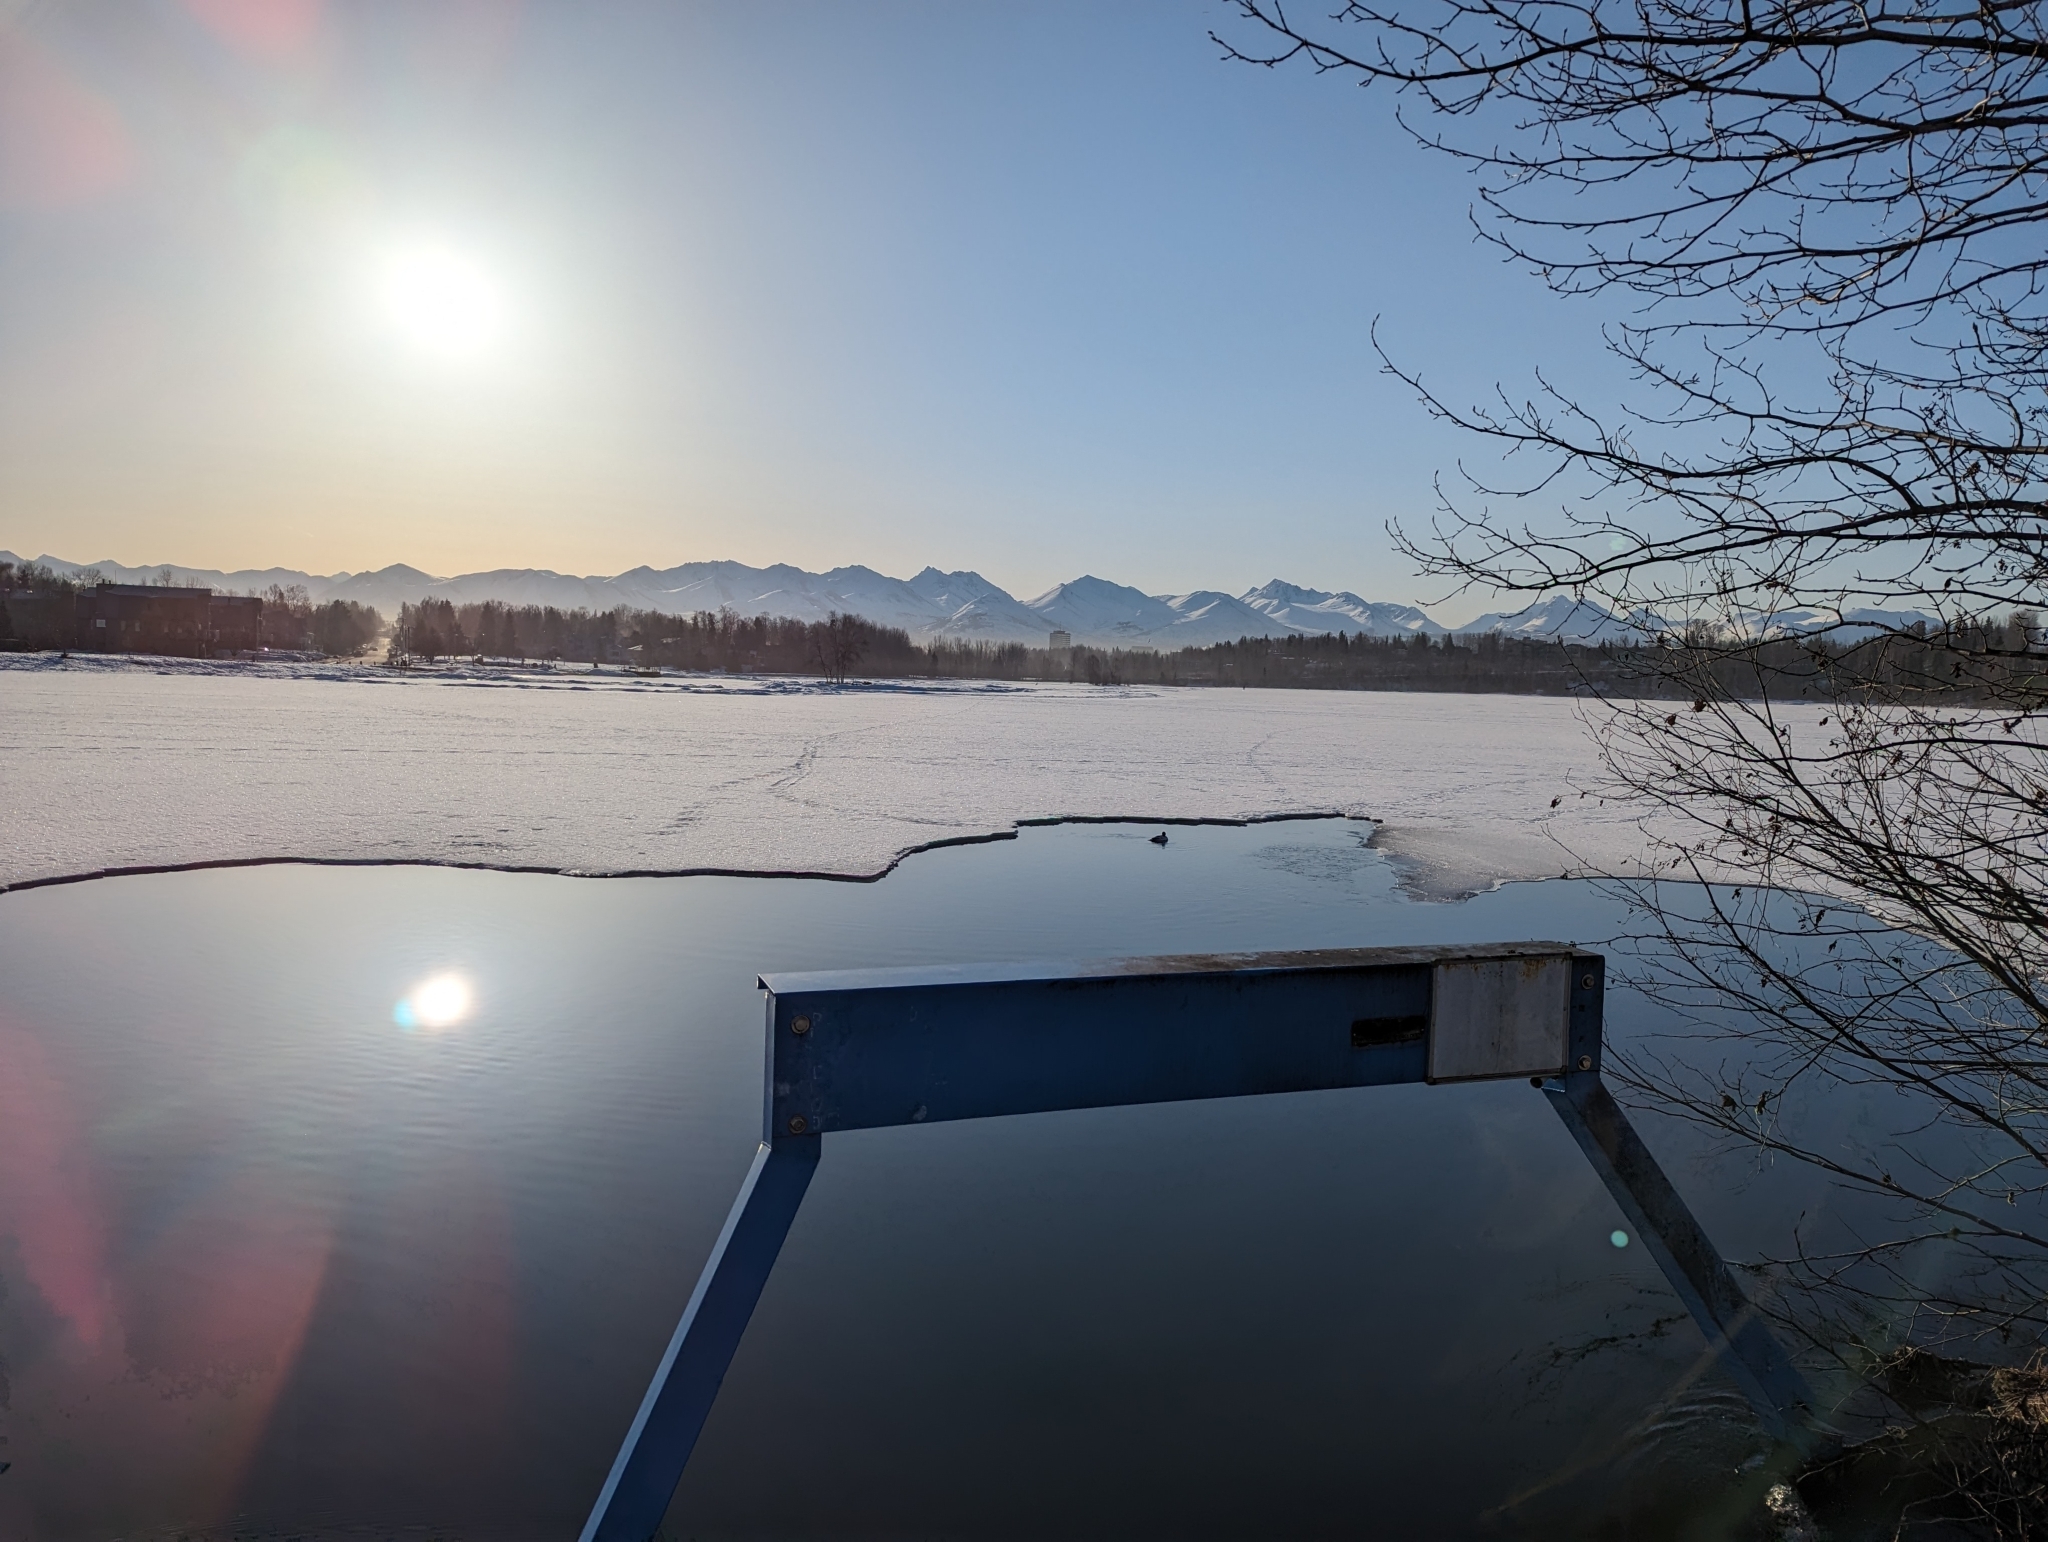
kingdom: Animalia
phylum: Chordata
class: Aves
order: Anseriformes
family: Anatidae
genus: Mergus
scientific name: Mergus merganser
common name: Common merganser
